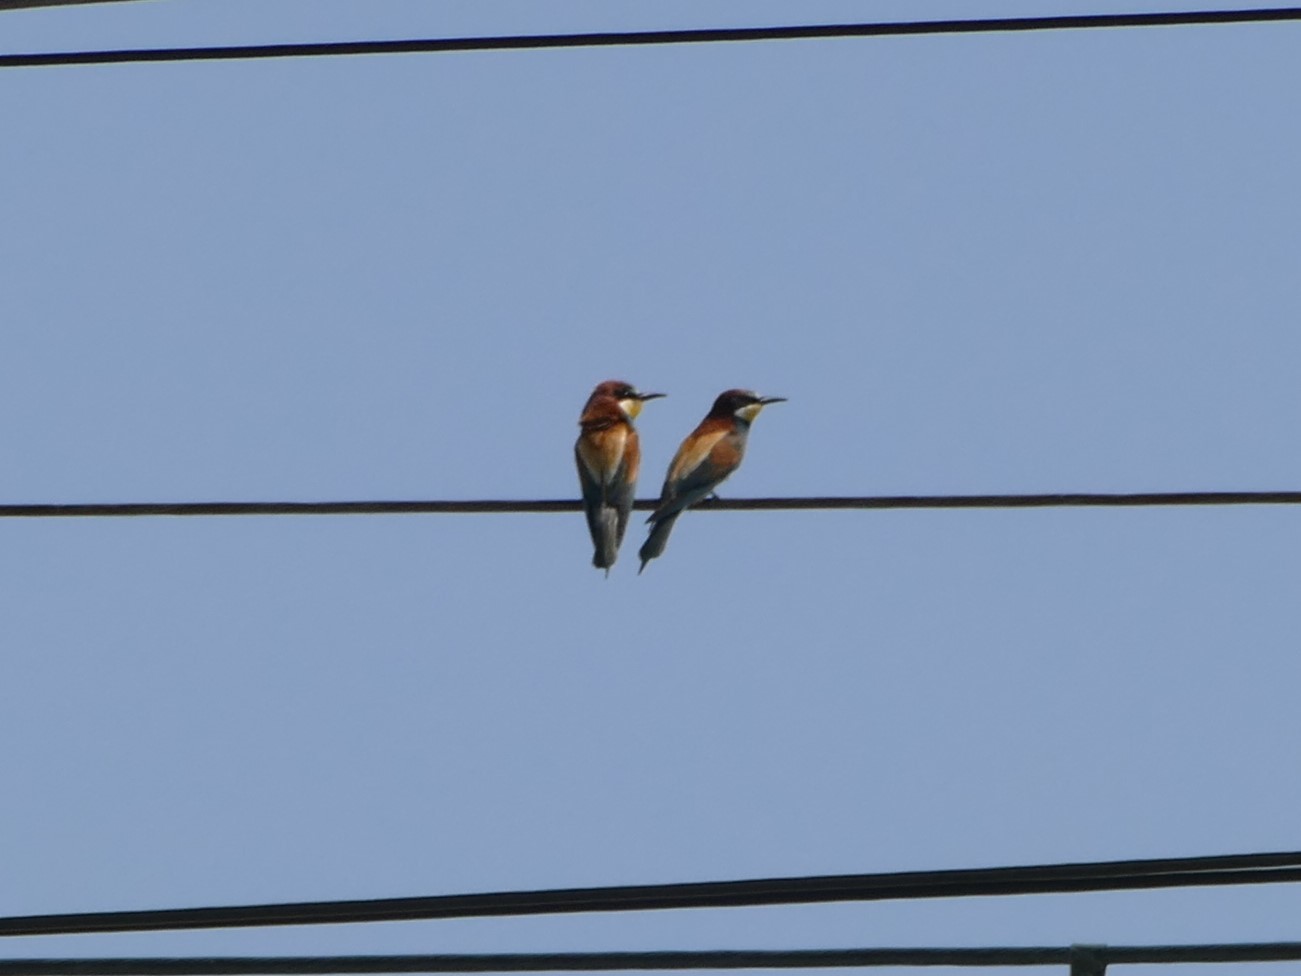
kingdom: Animalia
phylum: Chordata
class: Aves
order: Coraciiformes
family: Meropidae
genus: Merops
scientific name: Merops apiaster
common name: European bee-eater
